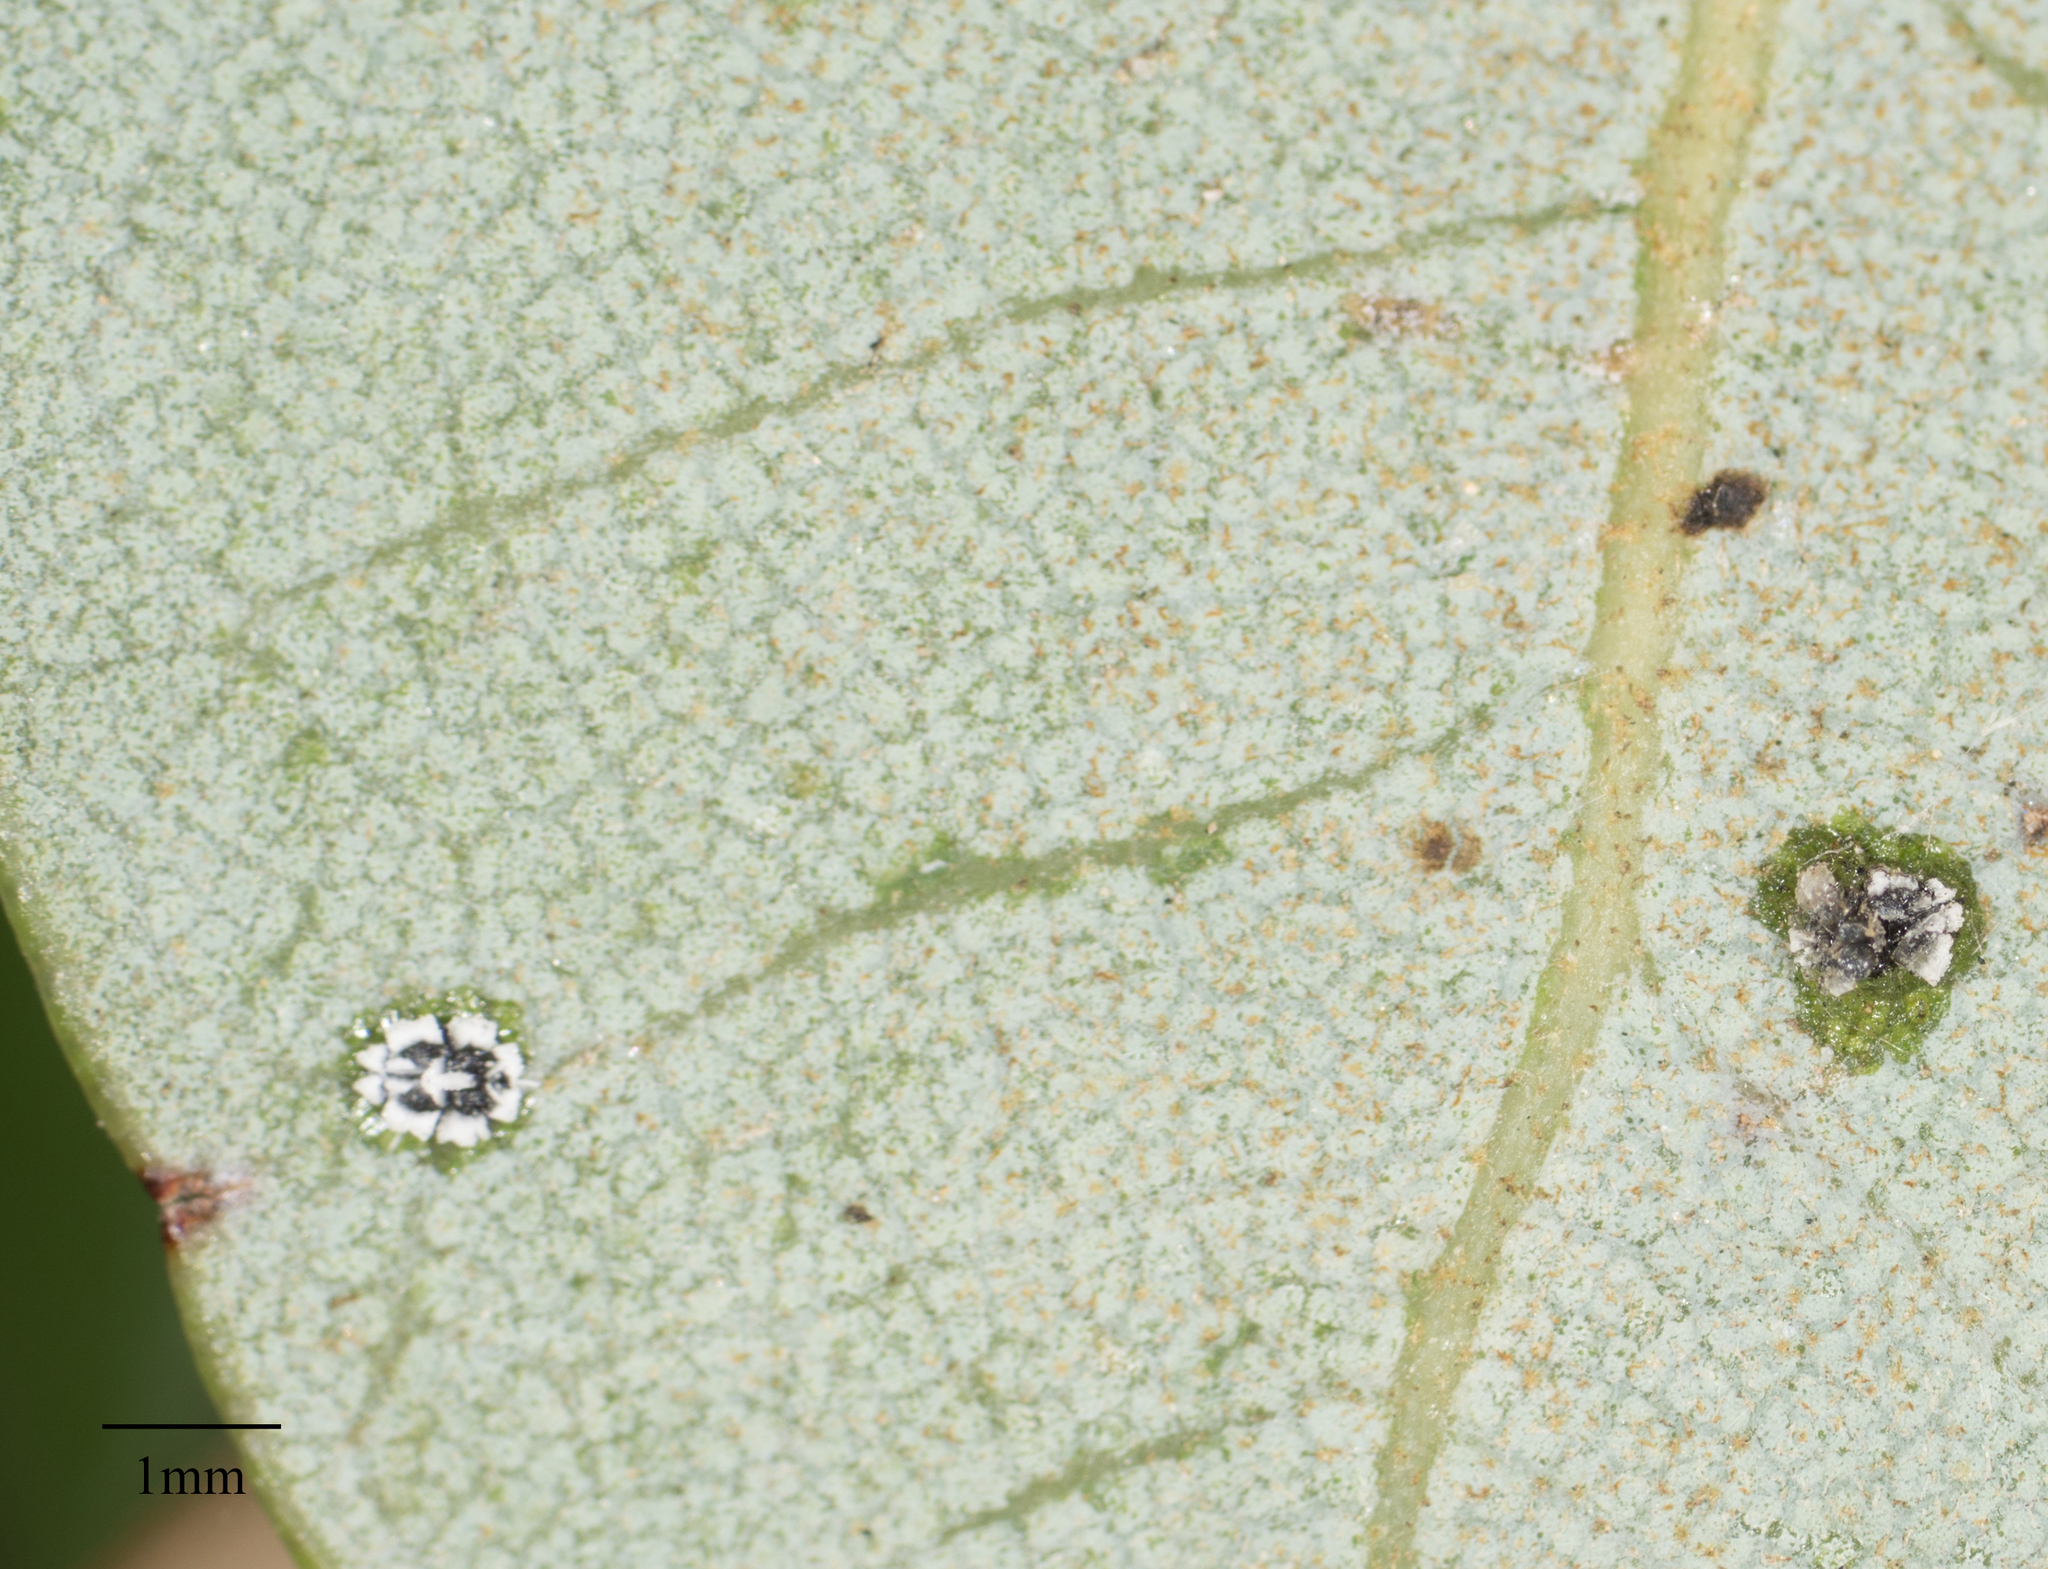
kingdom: Animalia
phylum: Arthropoda
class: Insecta
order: Hemiptera
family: Aleyrodidae
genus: Aleuroplatus
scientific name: Aleuroplatus coronata
